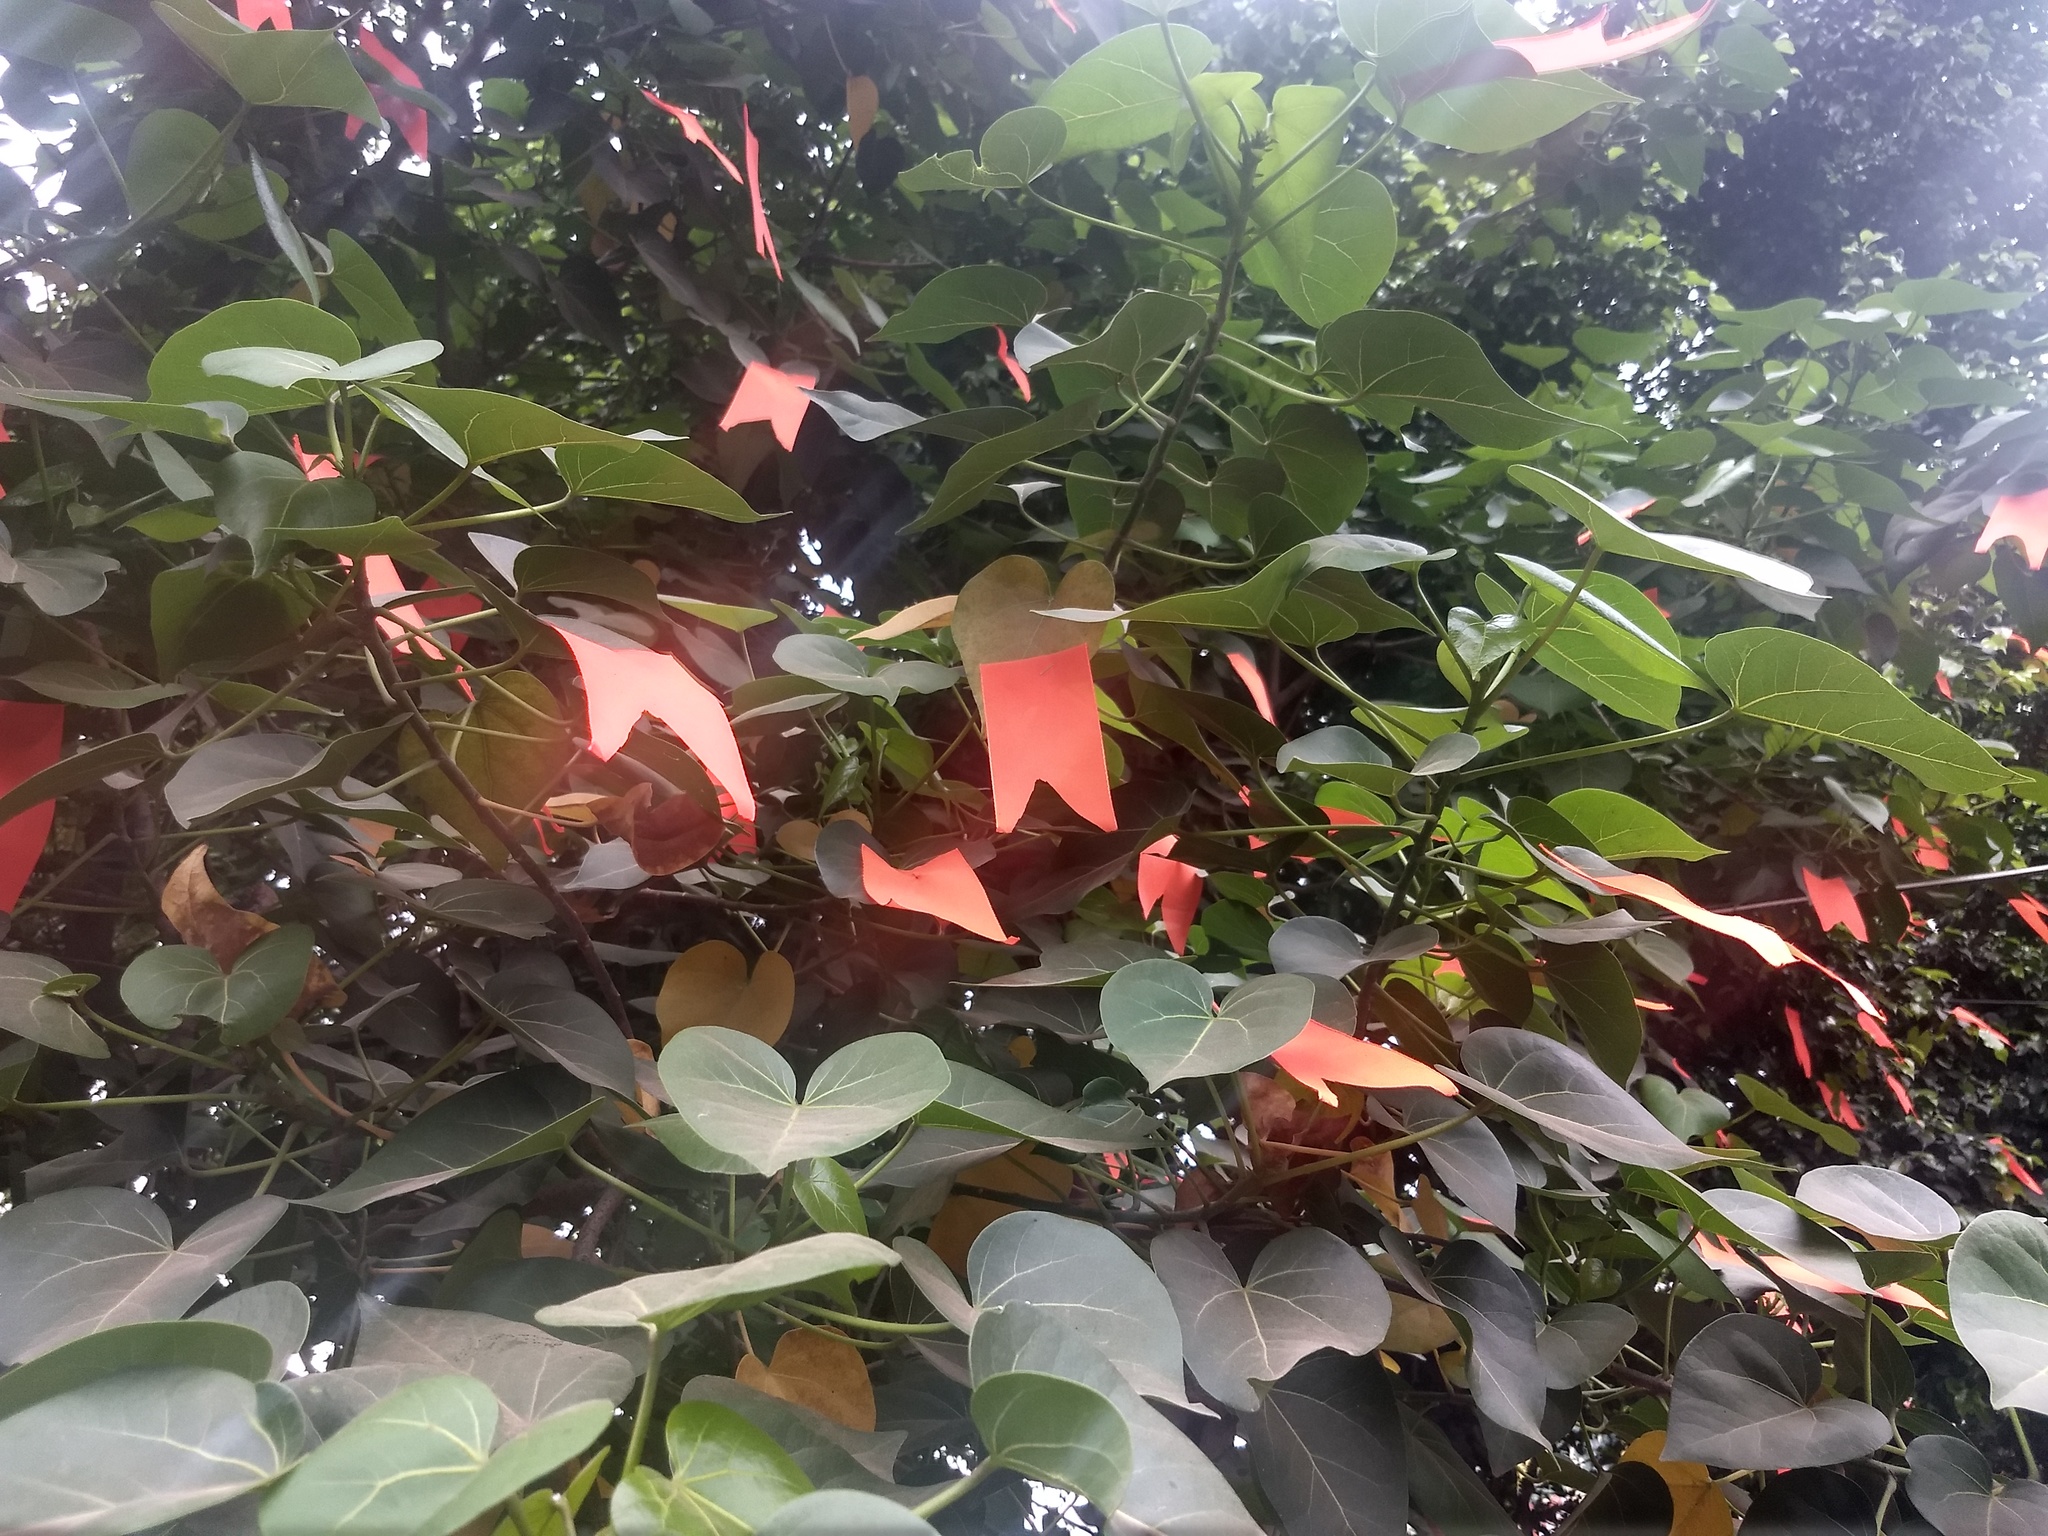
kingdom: Plantae
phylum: Tracheophyta
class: Magnoliopsida
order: Malvales
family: Malvaceae
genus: Thespesia
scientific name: Thespesia populnea
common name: Seaside mahoe
